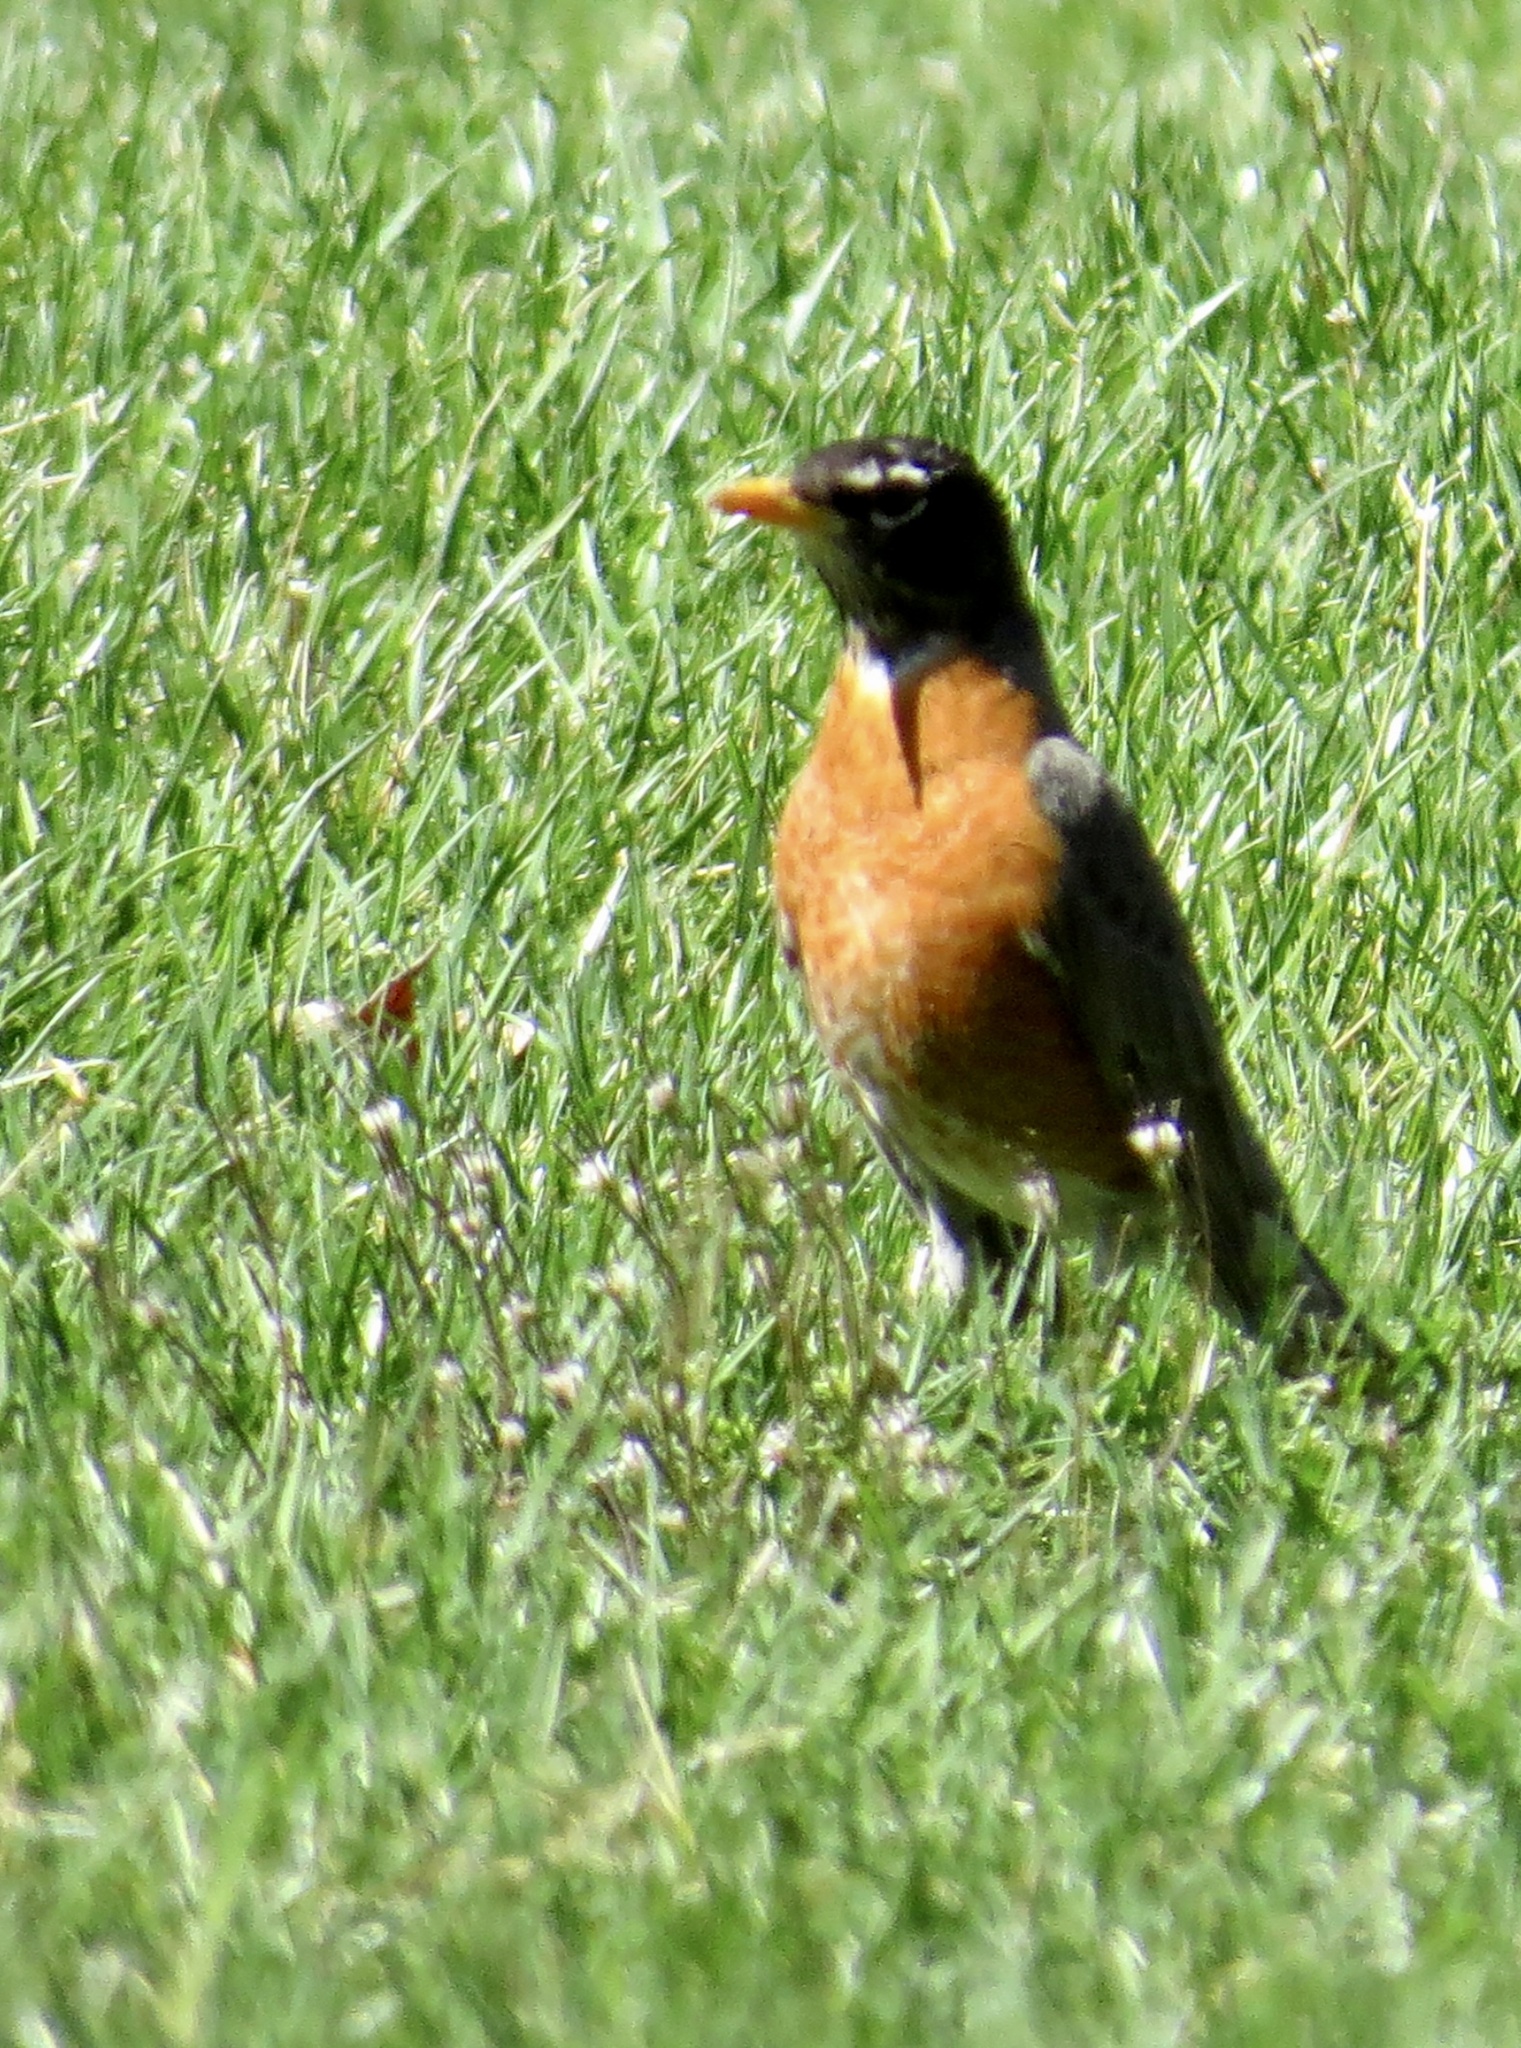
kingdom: Animalia
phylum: Chordata
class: Aves
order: Passeriformes
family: Turdidae
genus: Turdus
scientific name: Turdus migratorius
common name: American robin
